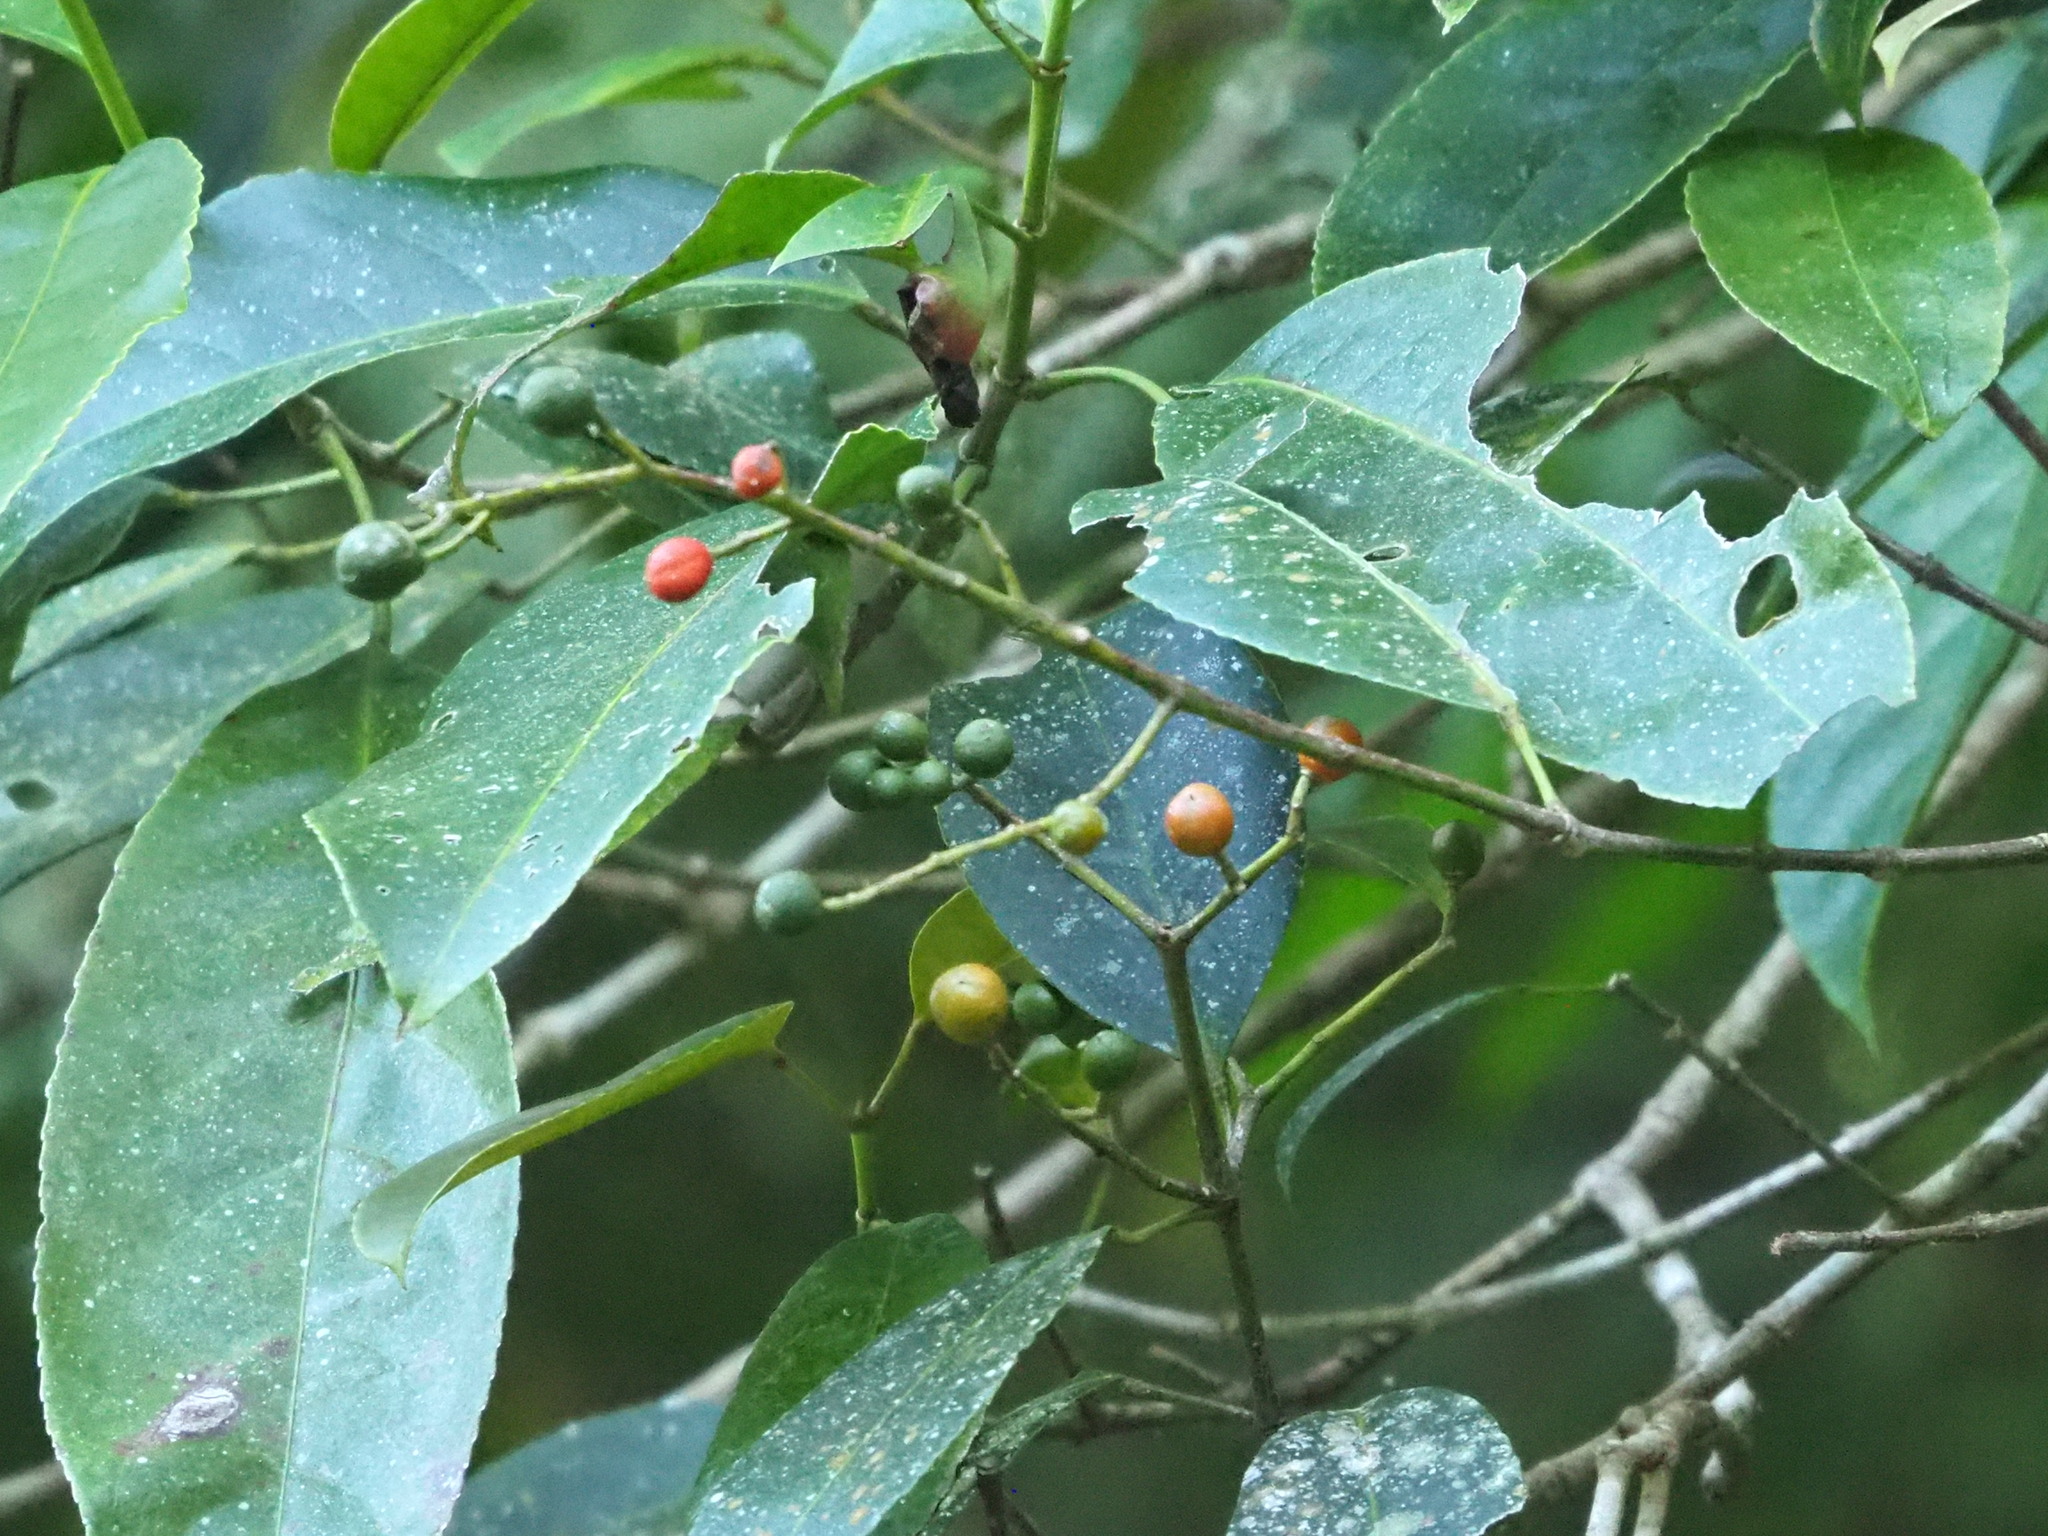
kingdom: Plantae
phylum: Tracheophyta
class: Magnoliopsida
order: Crossosomatales
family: Staphyleaceae
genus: Turpinia
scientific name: Turpinia formosana
